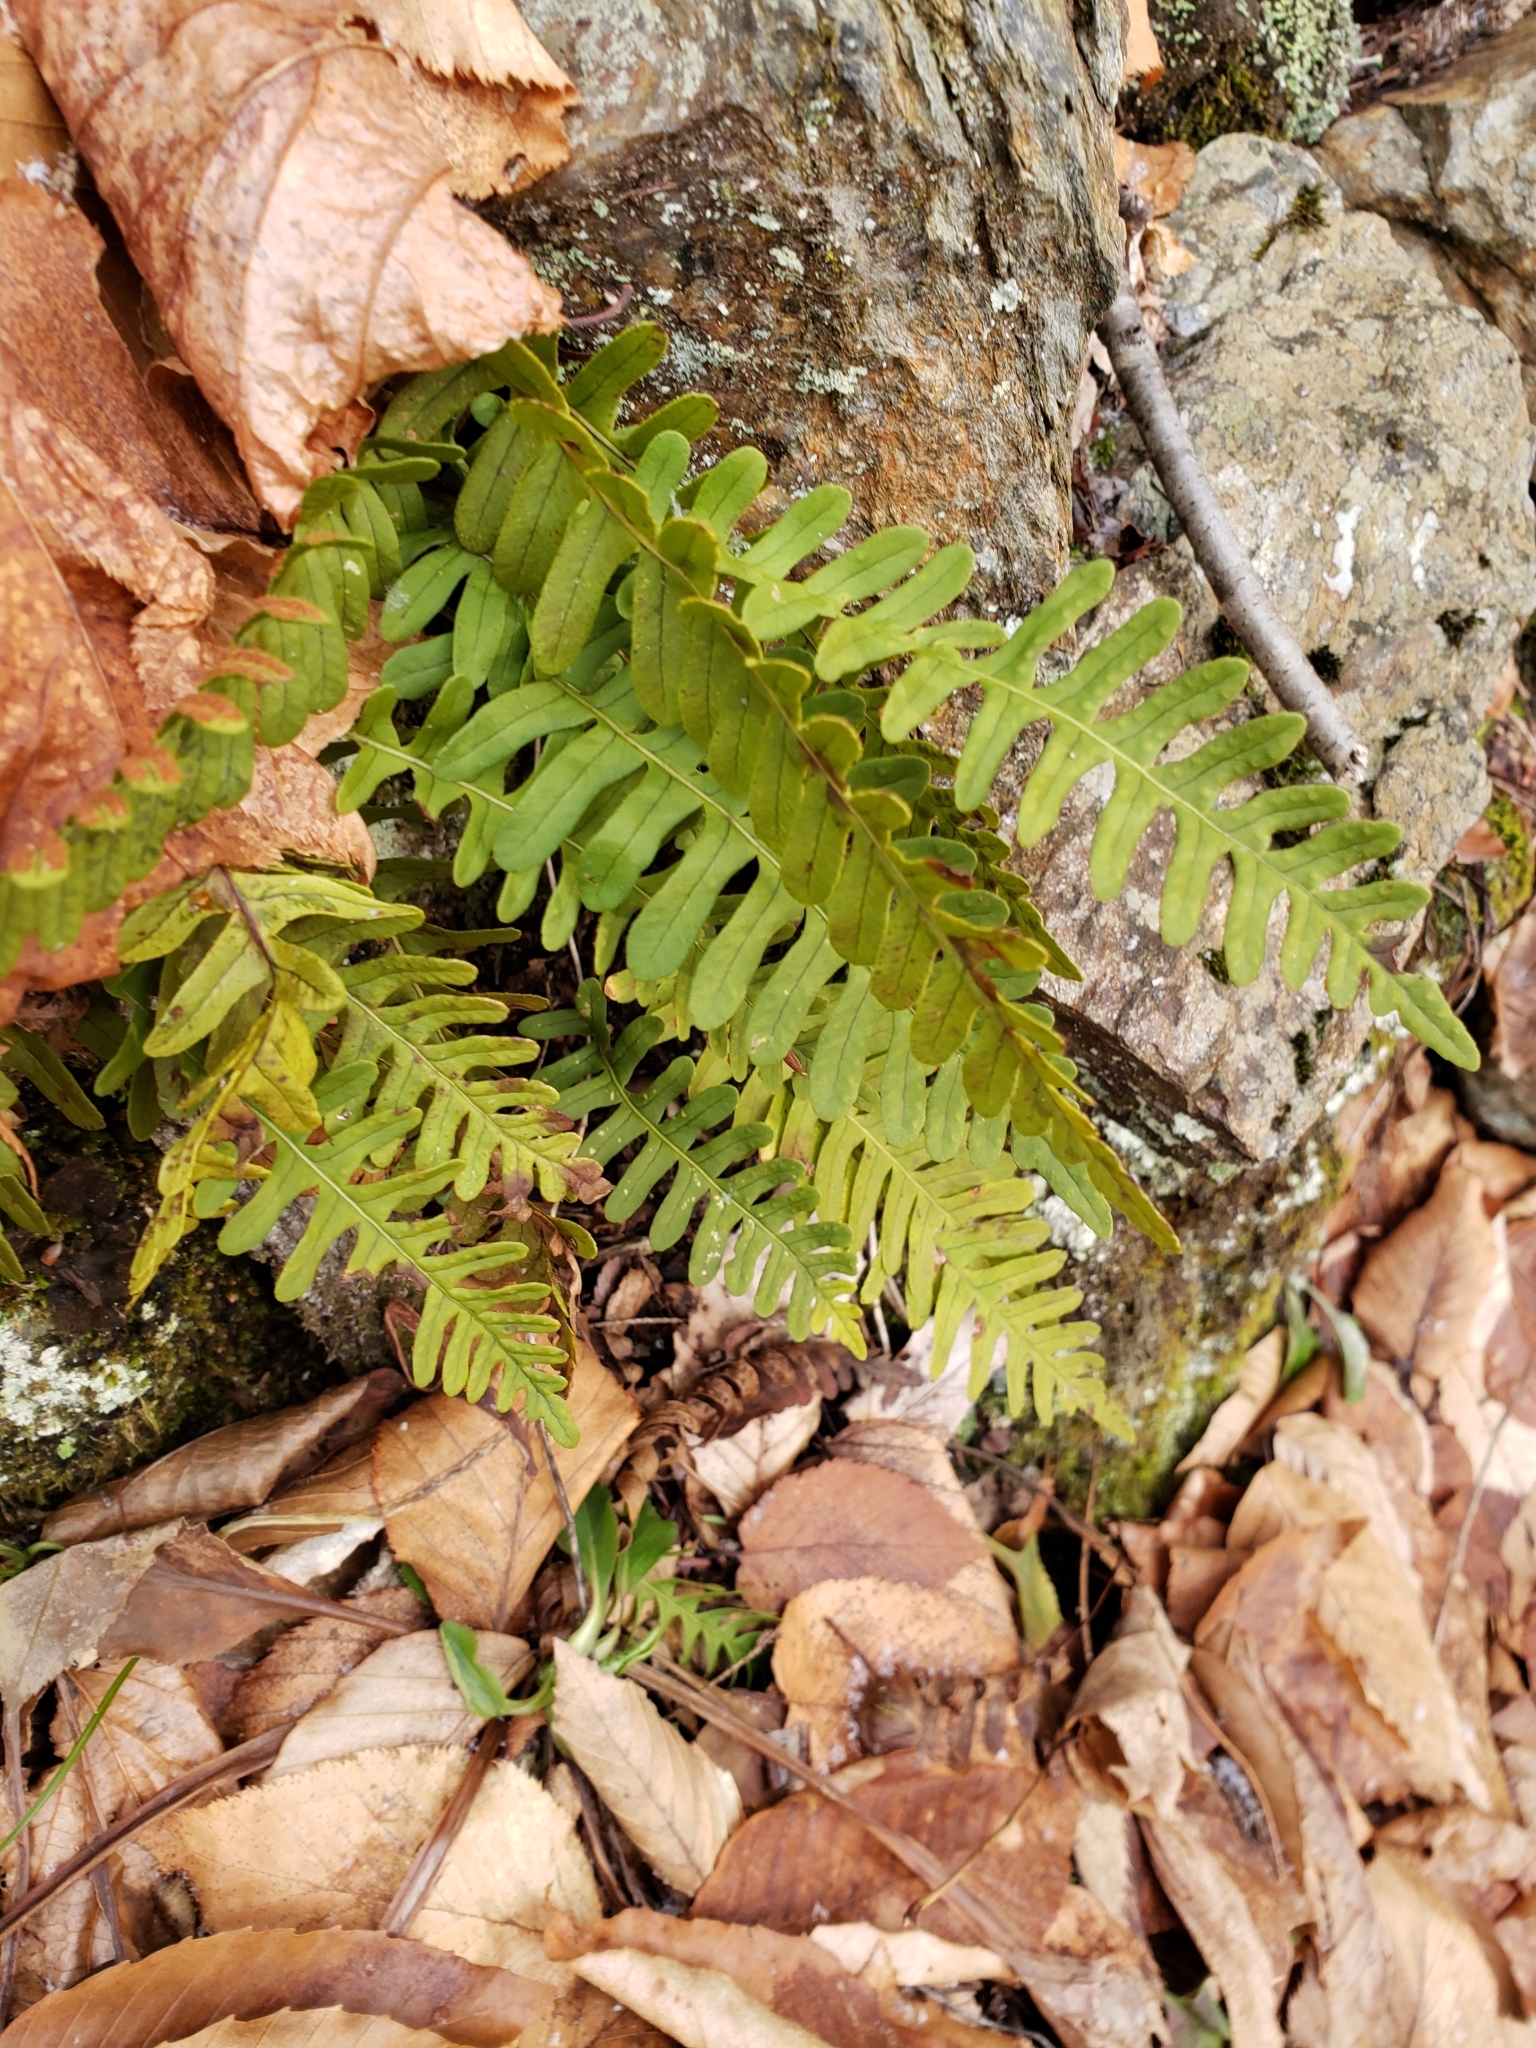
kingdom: Plantae
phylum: Tracheophyta
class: Polypodiopsida
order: Polypodiales
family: Polypodiaceae
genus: Polypodium
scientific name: Polypodium virginianum
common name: American wall fern
